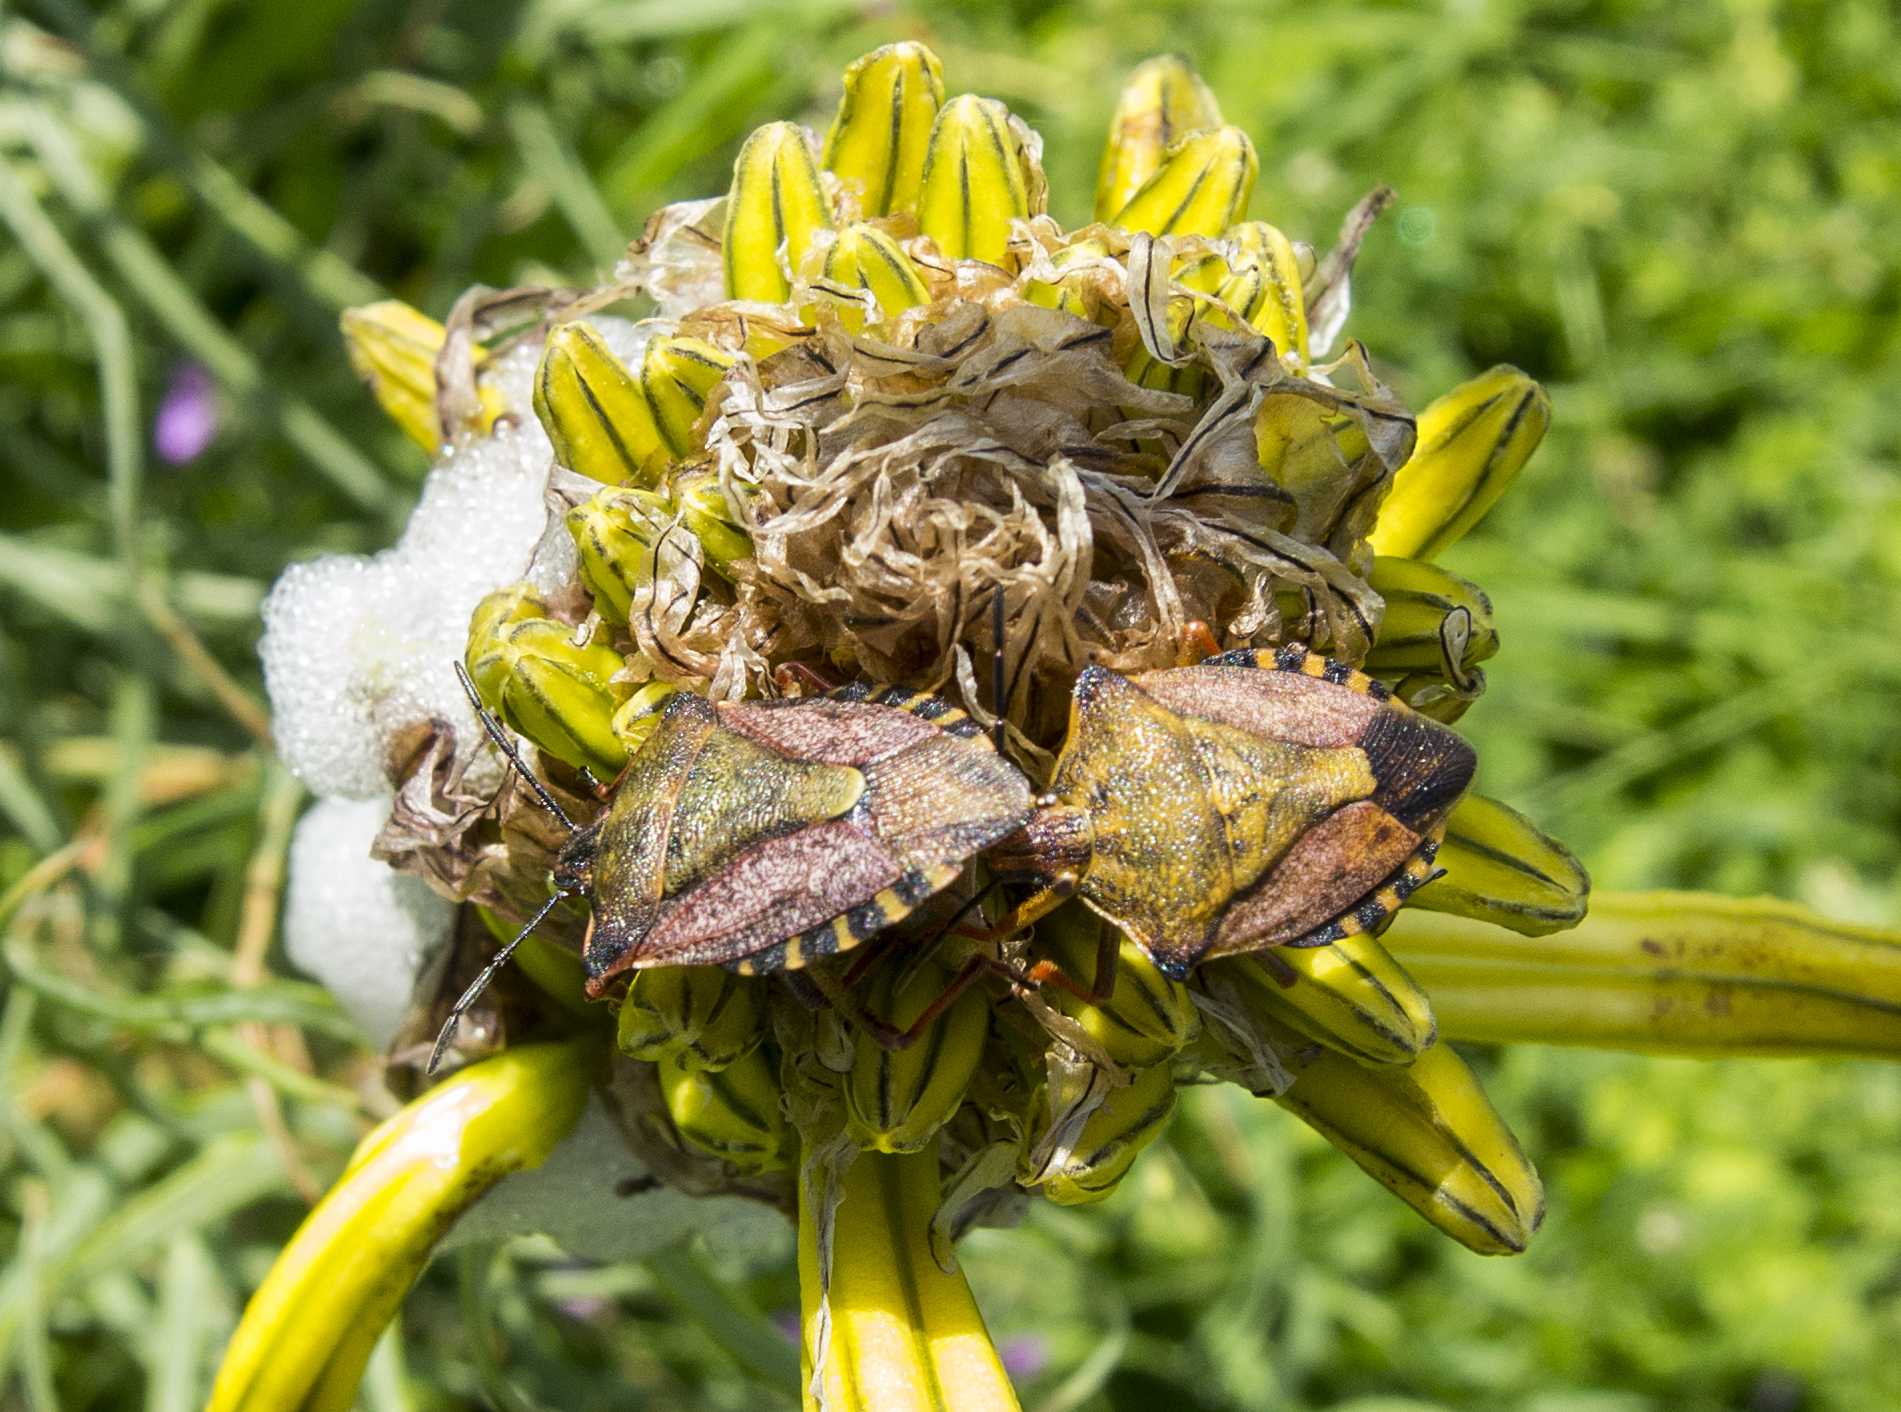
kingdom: Animalia
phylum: Arthropoda
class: Insecta
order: Hemiptera
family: Pentatomidae
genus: Carpocoris
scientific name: Carpocoris mediterraneus
